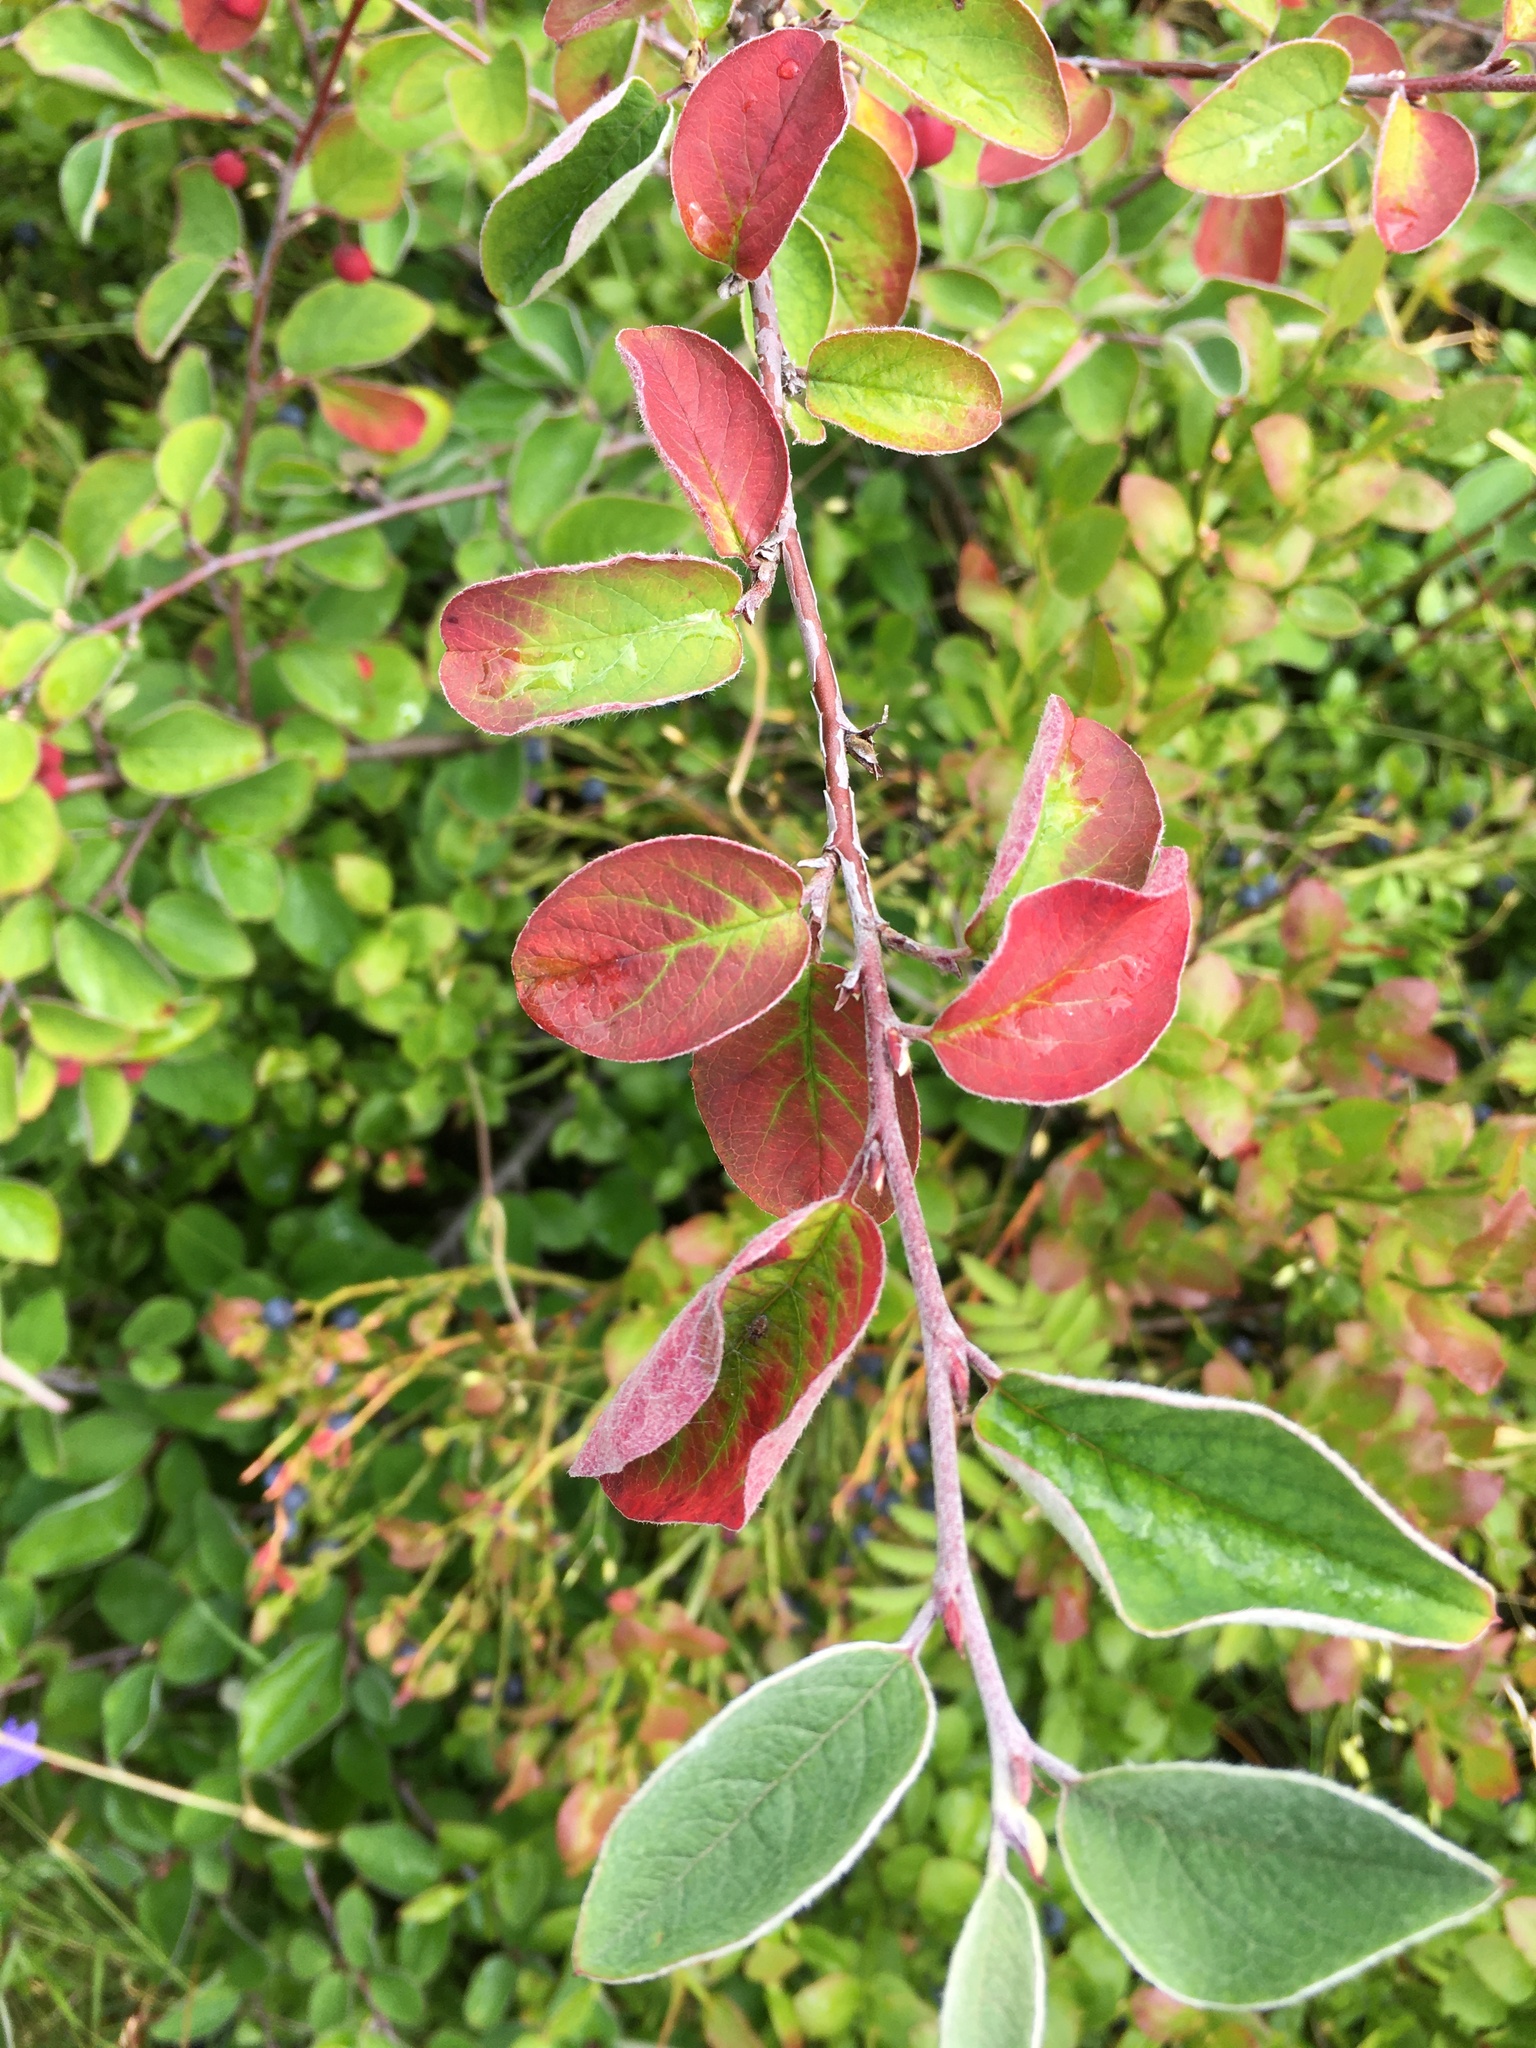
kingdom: Plantae
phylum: Tracheophyta
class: Magnoliopsida
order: Rosales
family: Rosaceae
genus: Cotoneaster
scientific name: Cotoneaster melanocarpus
